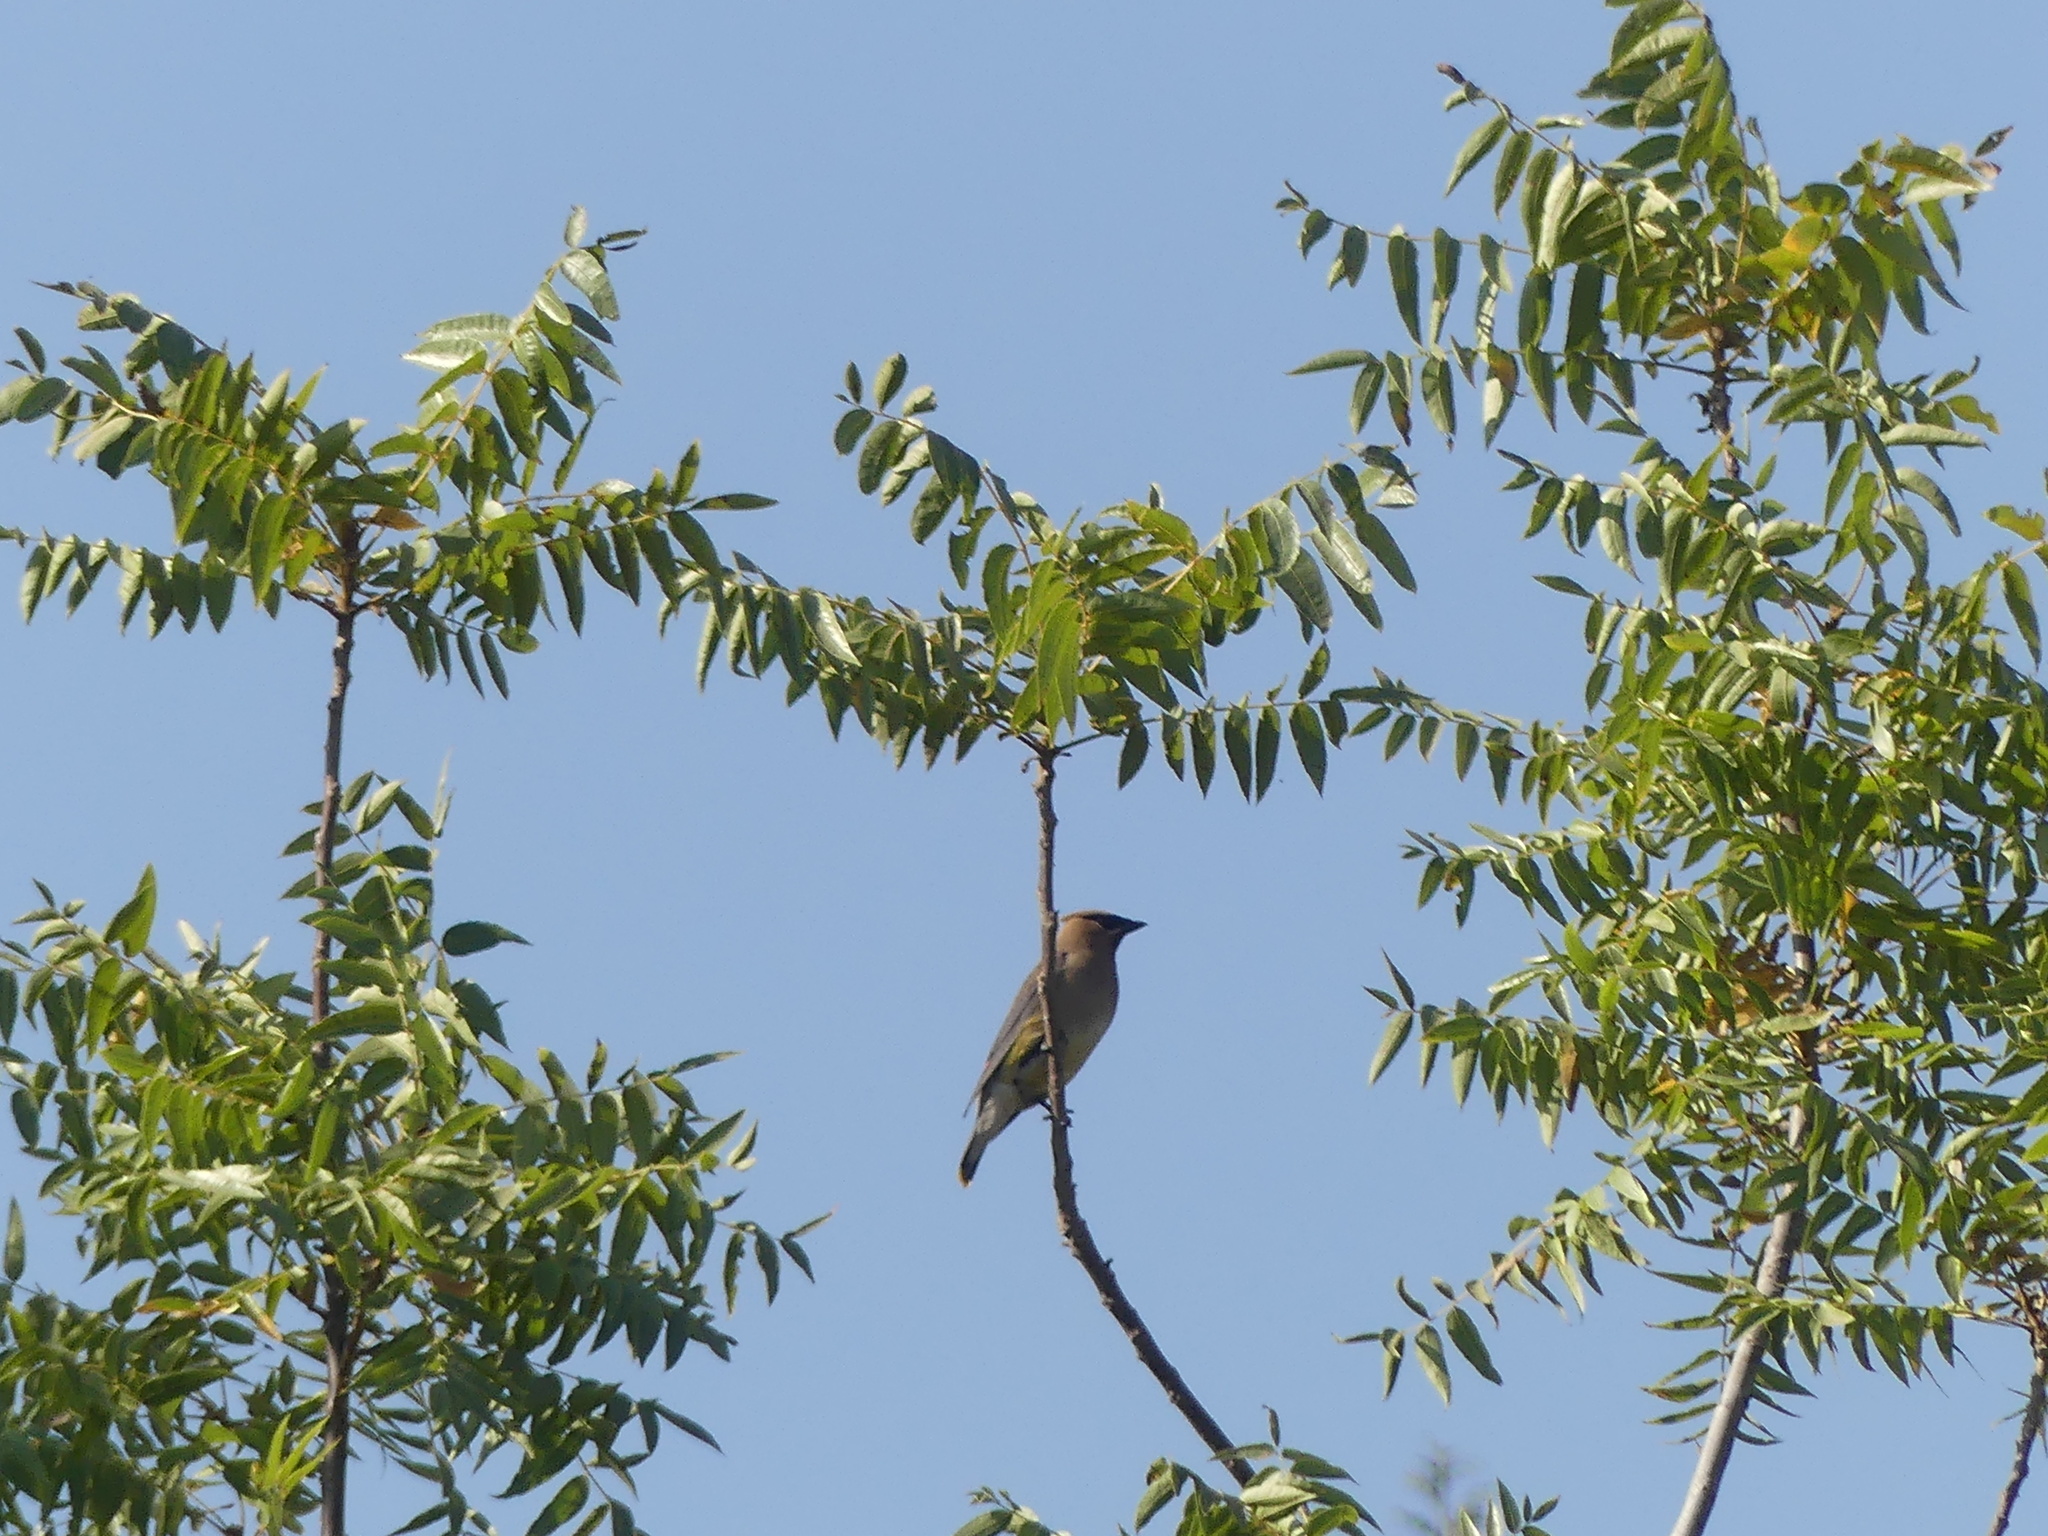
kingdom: Animalia
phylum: Chordata
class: Aves
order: Passeriformes
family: Bombycillidae
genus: Bombycilla
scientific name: Bombycilla cedrorum
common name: Cedar waxwing
